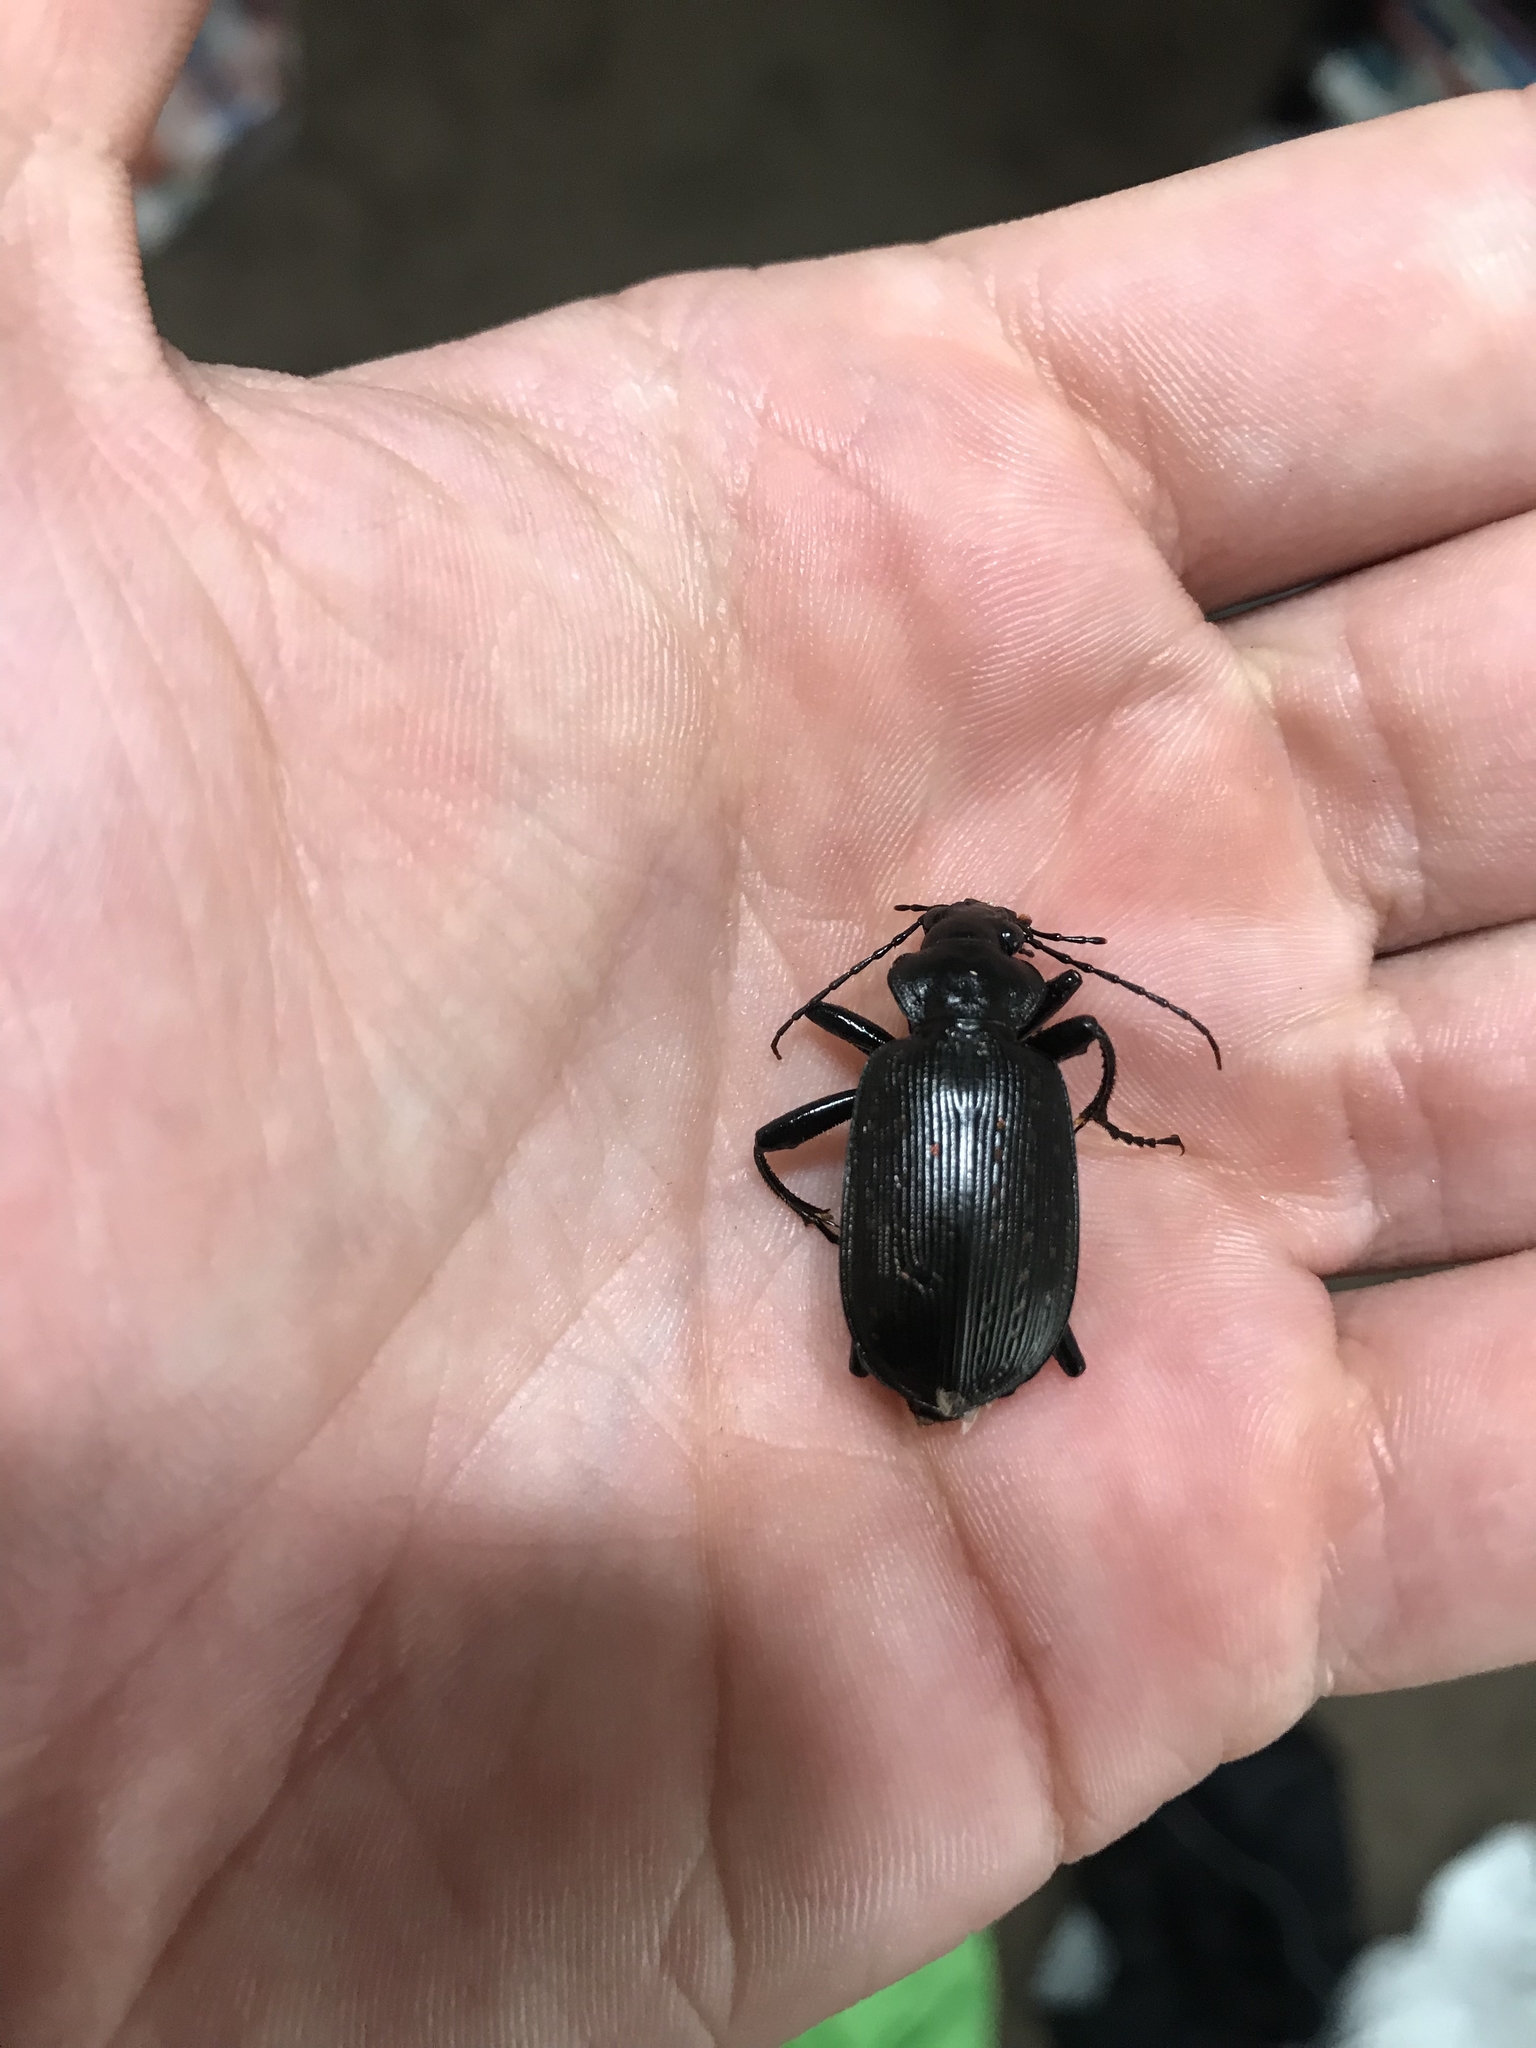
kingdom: Animalia
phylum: Arthropoda
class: Insecta
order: Coleoptera
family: Carabidae
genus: Calosoma
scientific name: Calosoma sayi
